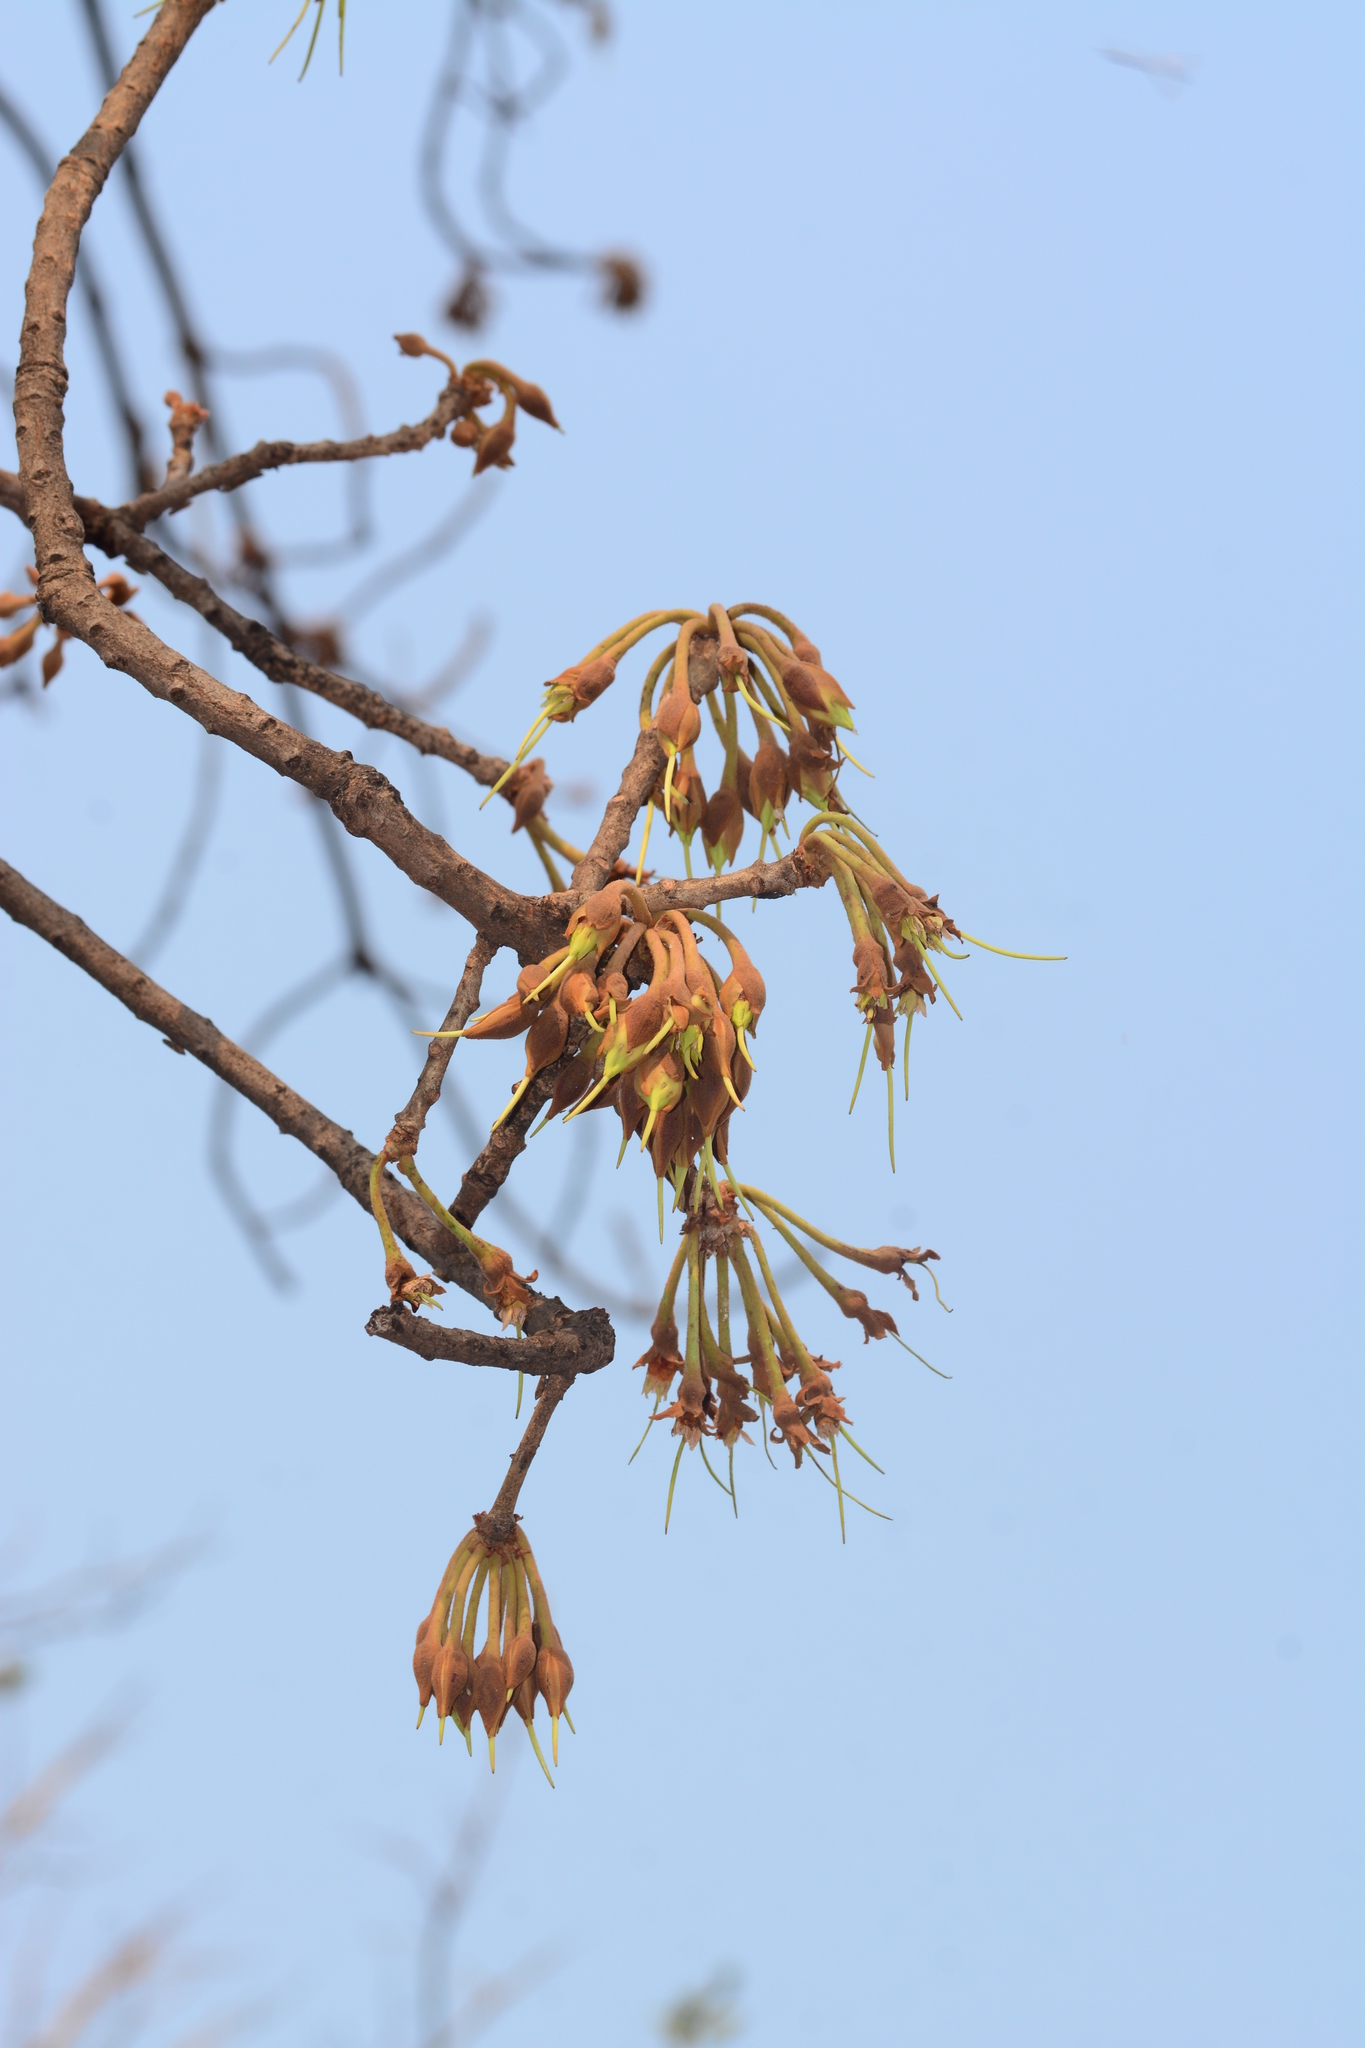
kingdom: Plantae
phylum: Tracheophyta
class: Magnoliopsida
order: Ericales
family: Sapotaceae
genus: Madhuca
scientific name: Madhuca longifolia
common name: Mowra-buttertree
